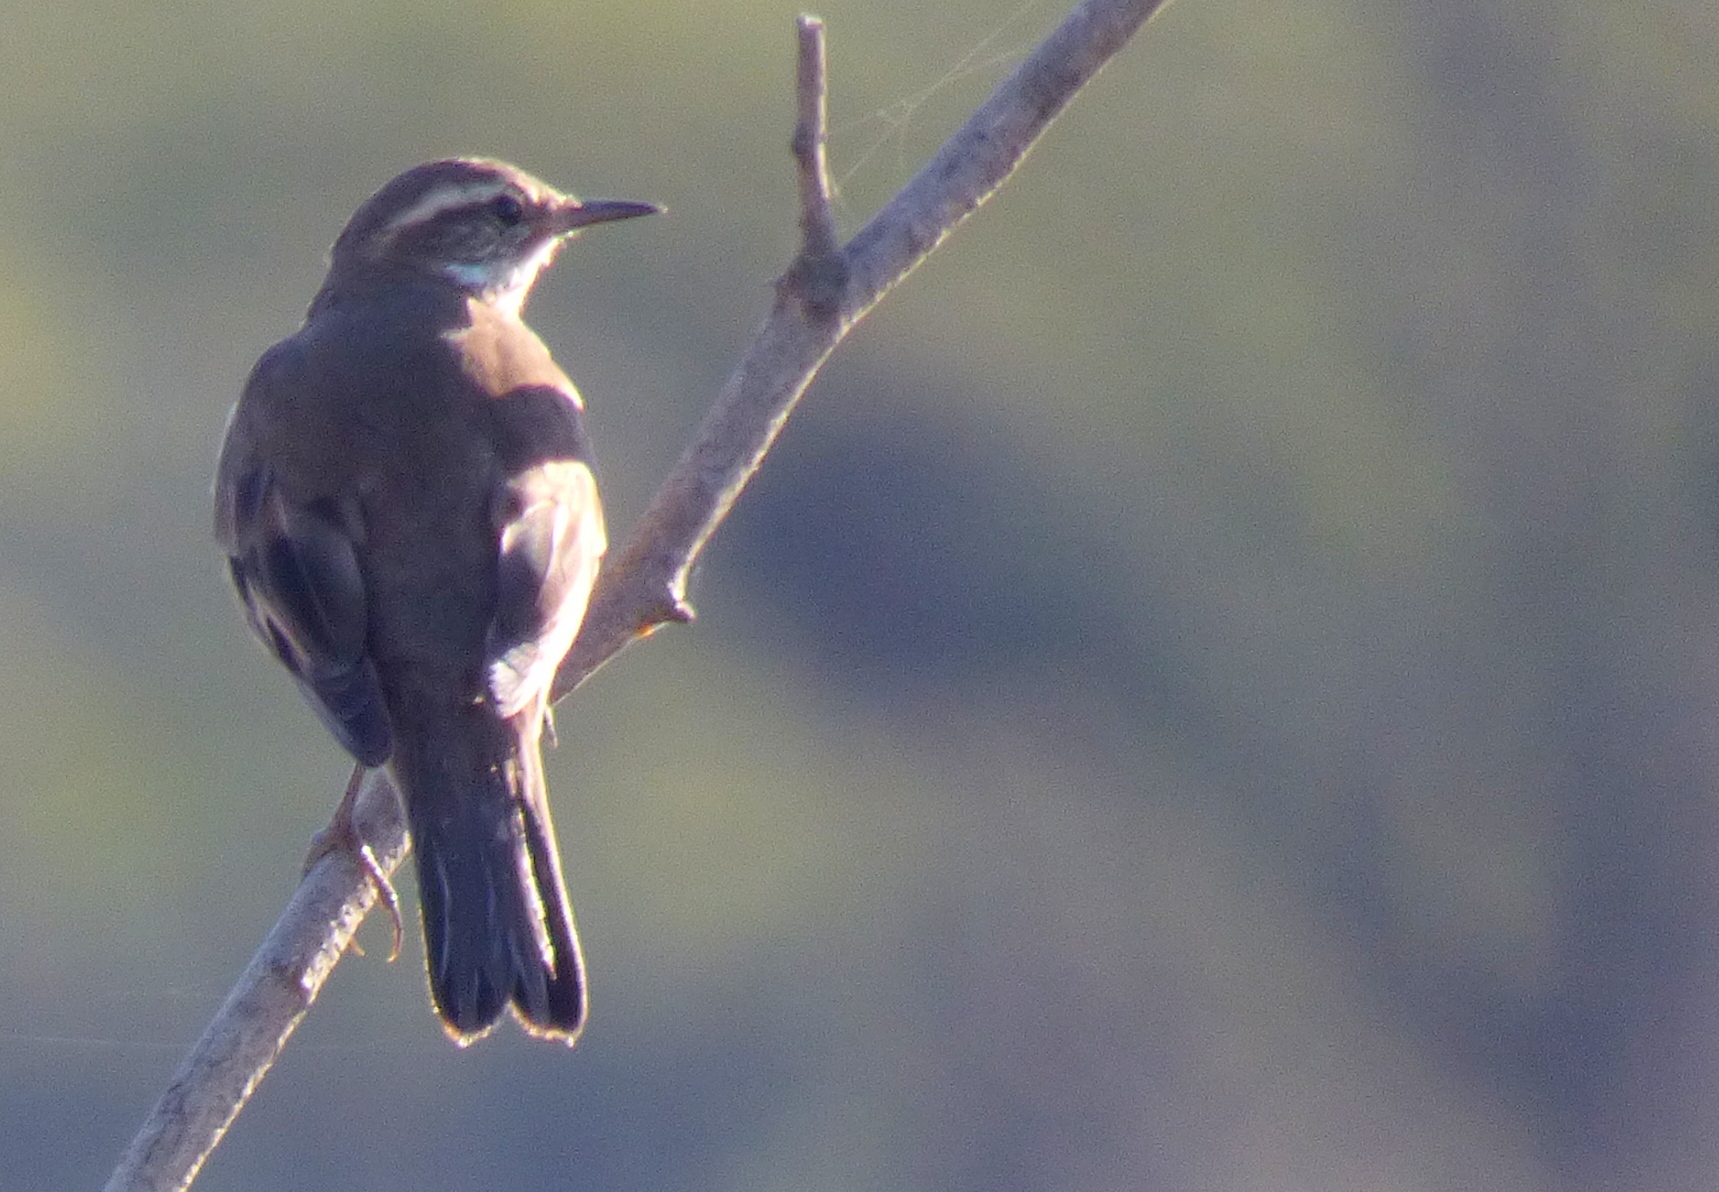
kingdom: Animalia
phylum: Chordata
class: Aves
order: Passeriformes
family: Furnariidae
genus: Cinclodes
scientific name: Cinclodes fuscus
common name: Buff-winged cinclodes
